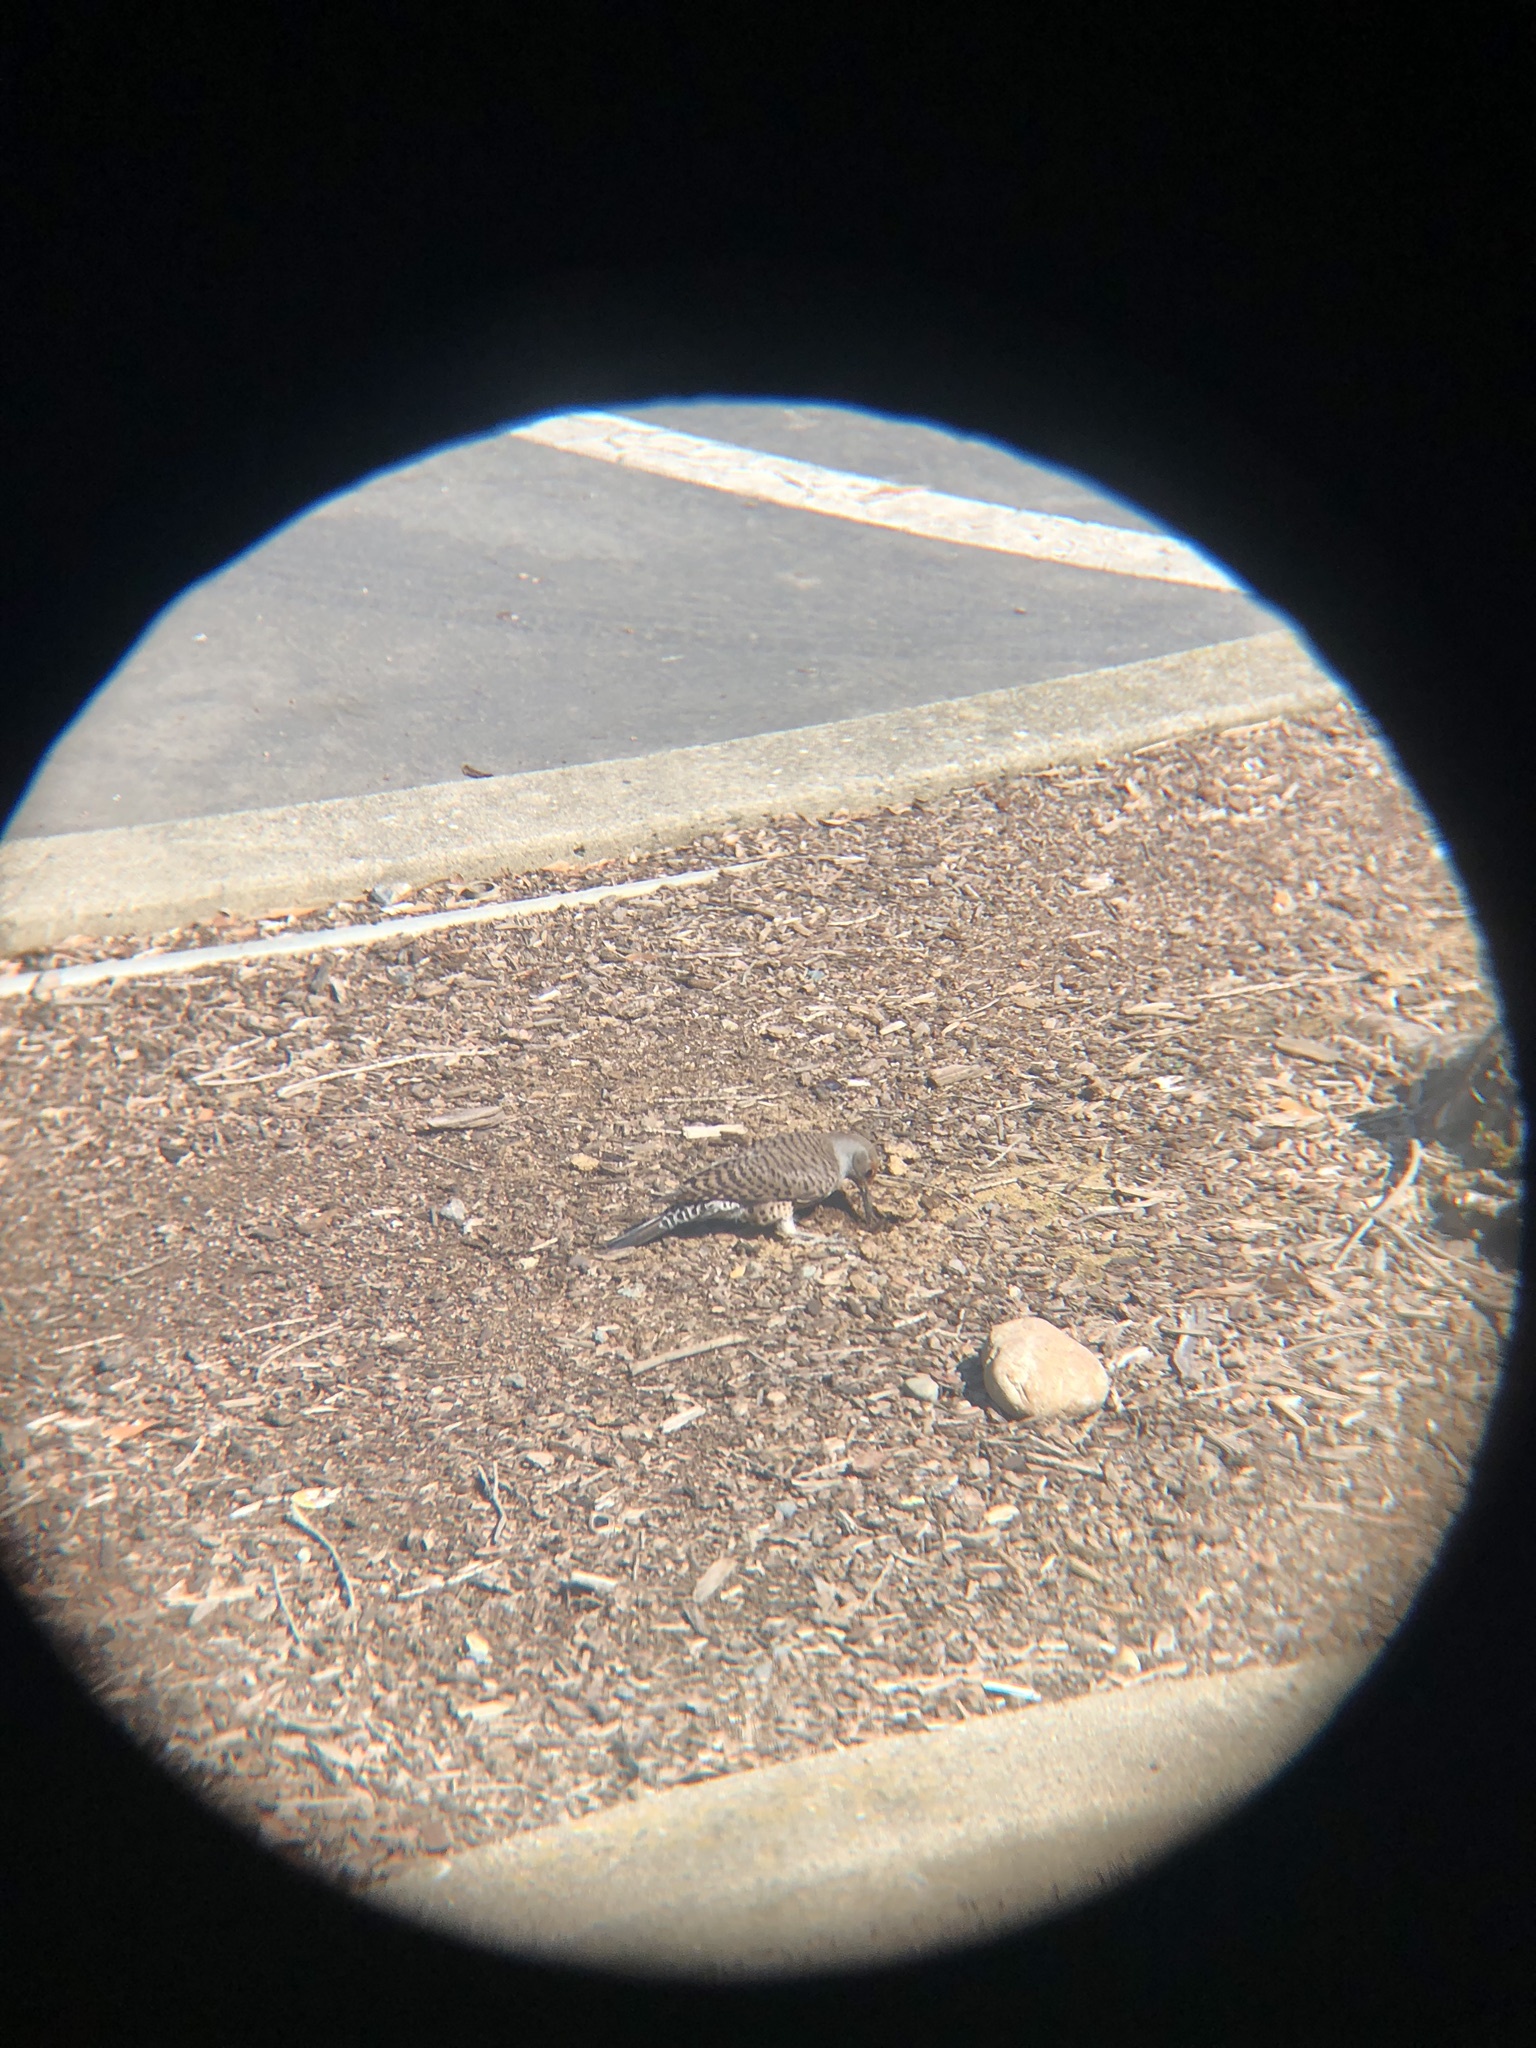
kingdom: Animalia
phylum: Chordata
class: Aves
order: Piciformes
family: Picidae
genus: Colaptes
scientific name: Colaptes auratus
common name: Northern flicker
